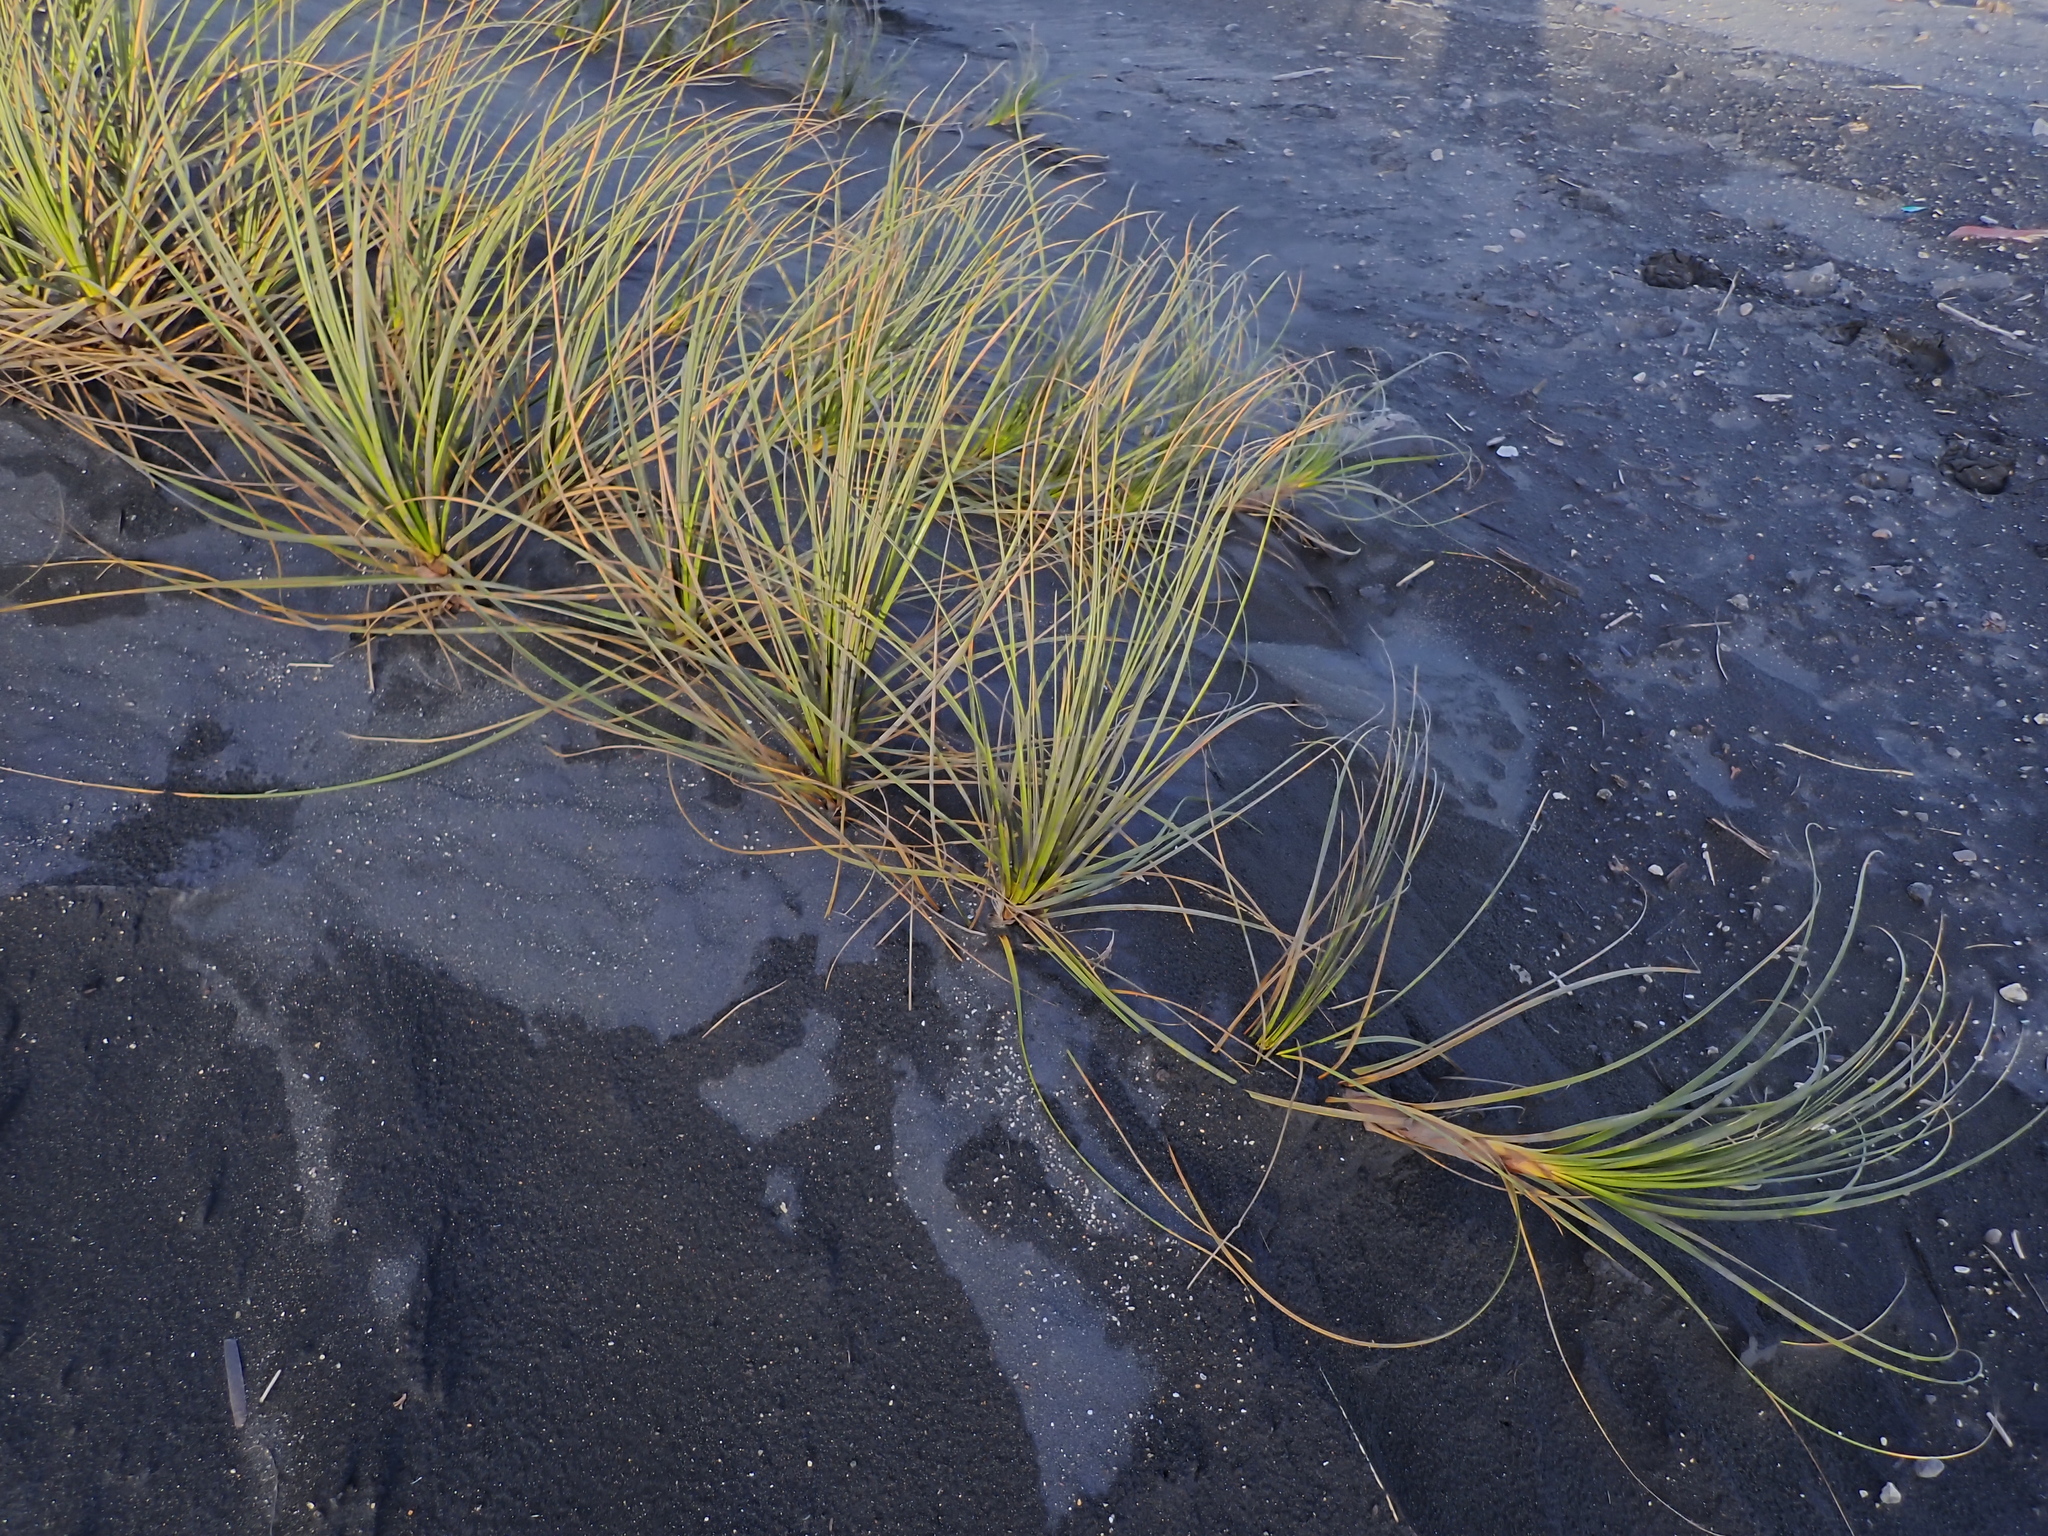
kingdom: Plantae
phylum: Tracheophyta
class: Liliopsida
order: Poales
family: Cyperaceae
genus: Ficinia
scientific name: Ficinia spiralis
